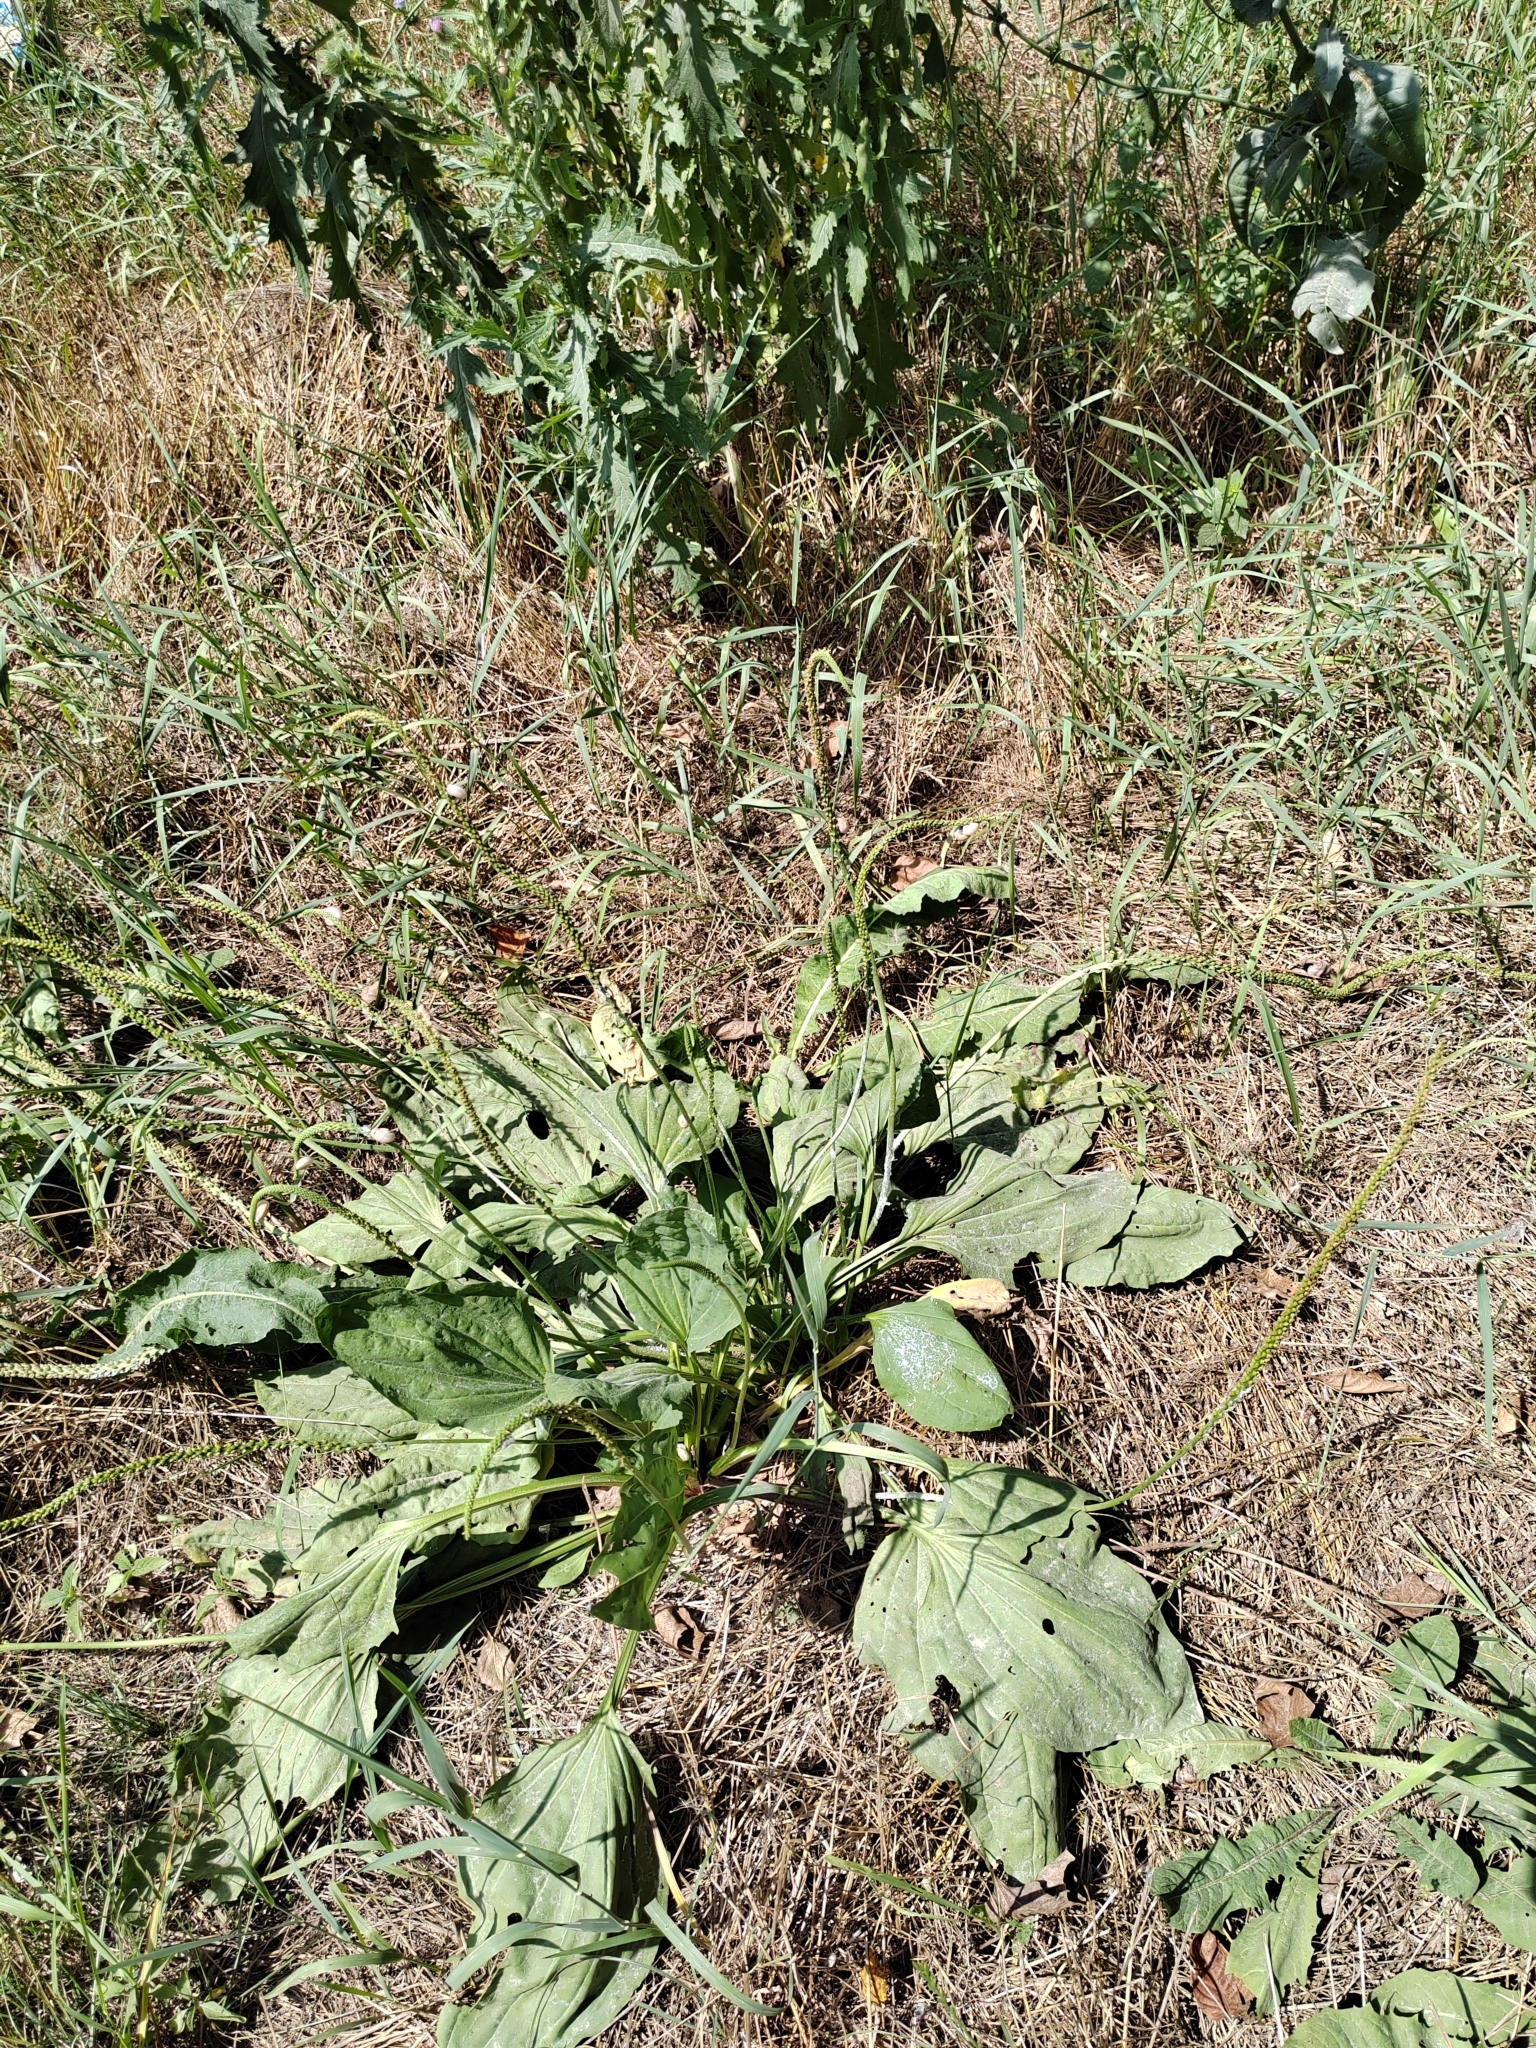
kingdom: Plantae
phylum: Tracheophyta
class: Magnoliopsida
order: Lamiales
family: Plantaginaceae
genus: Plantago
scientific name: Plantago major
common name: Common plantain
